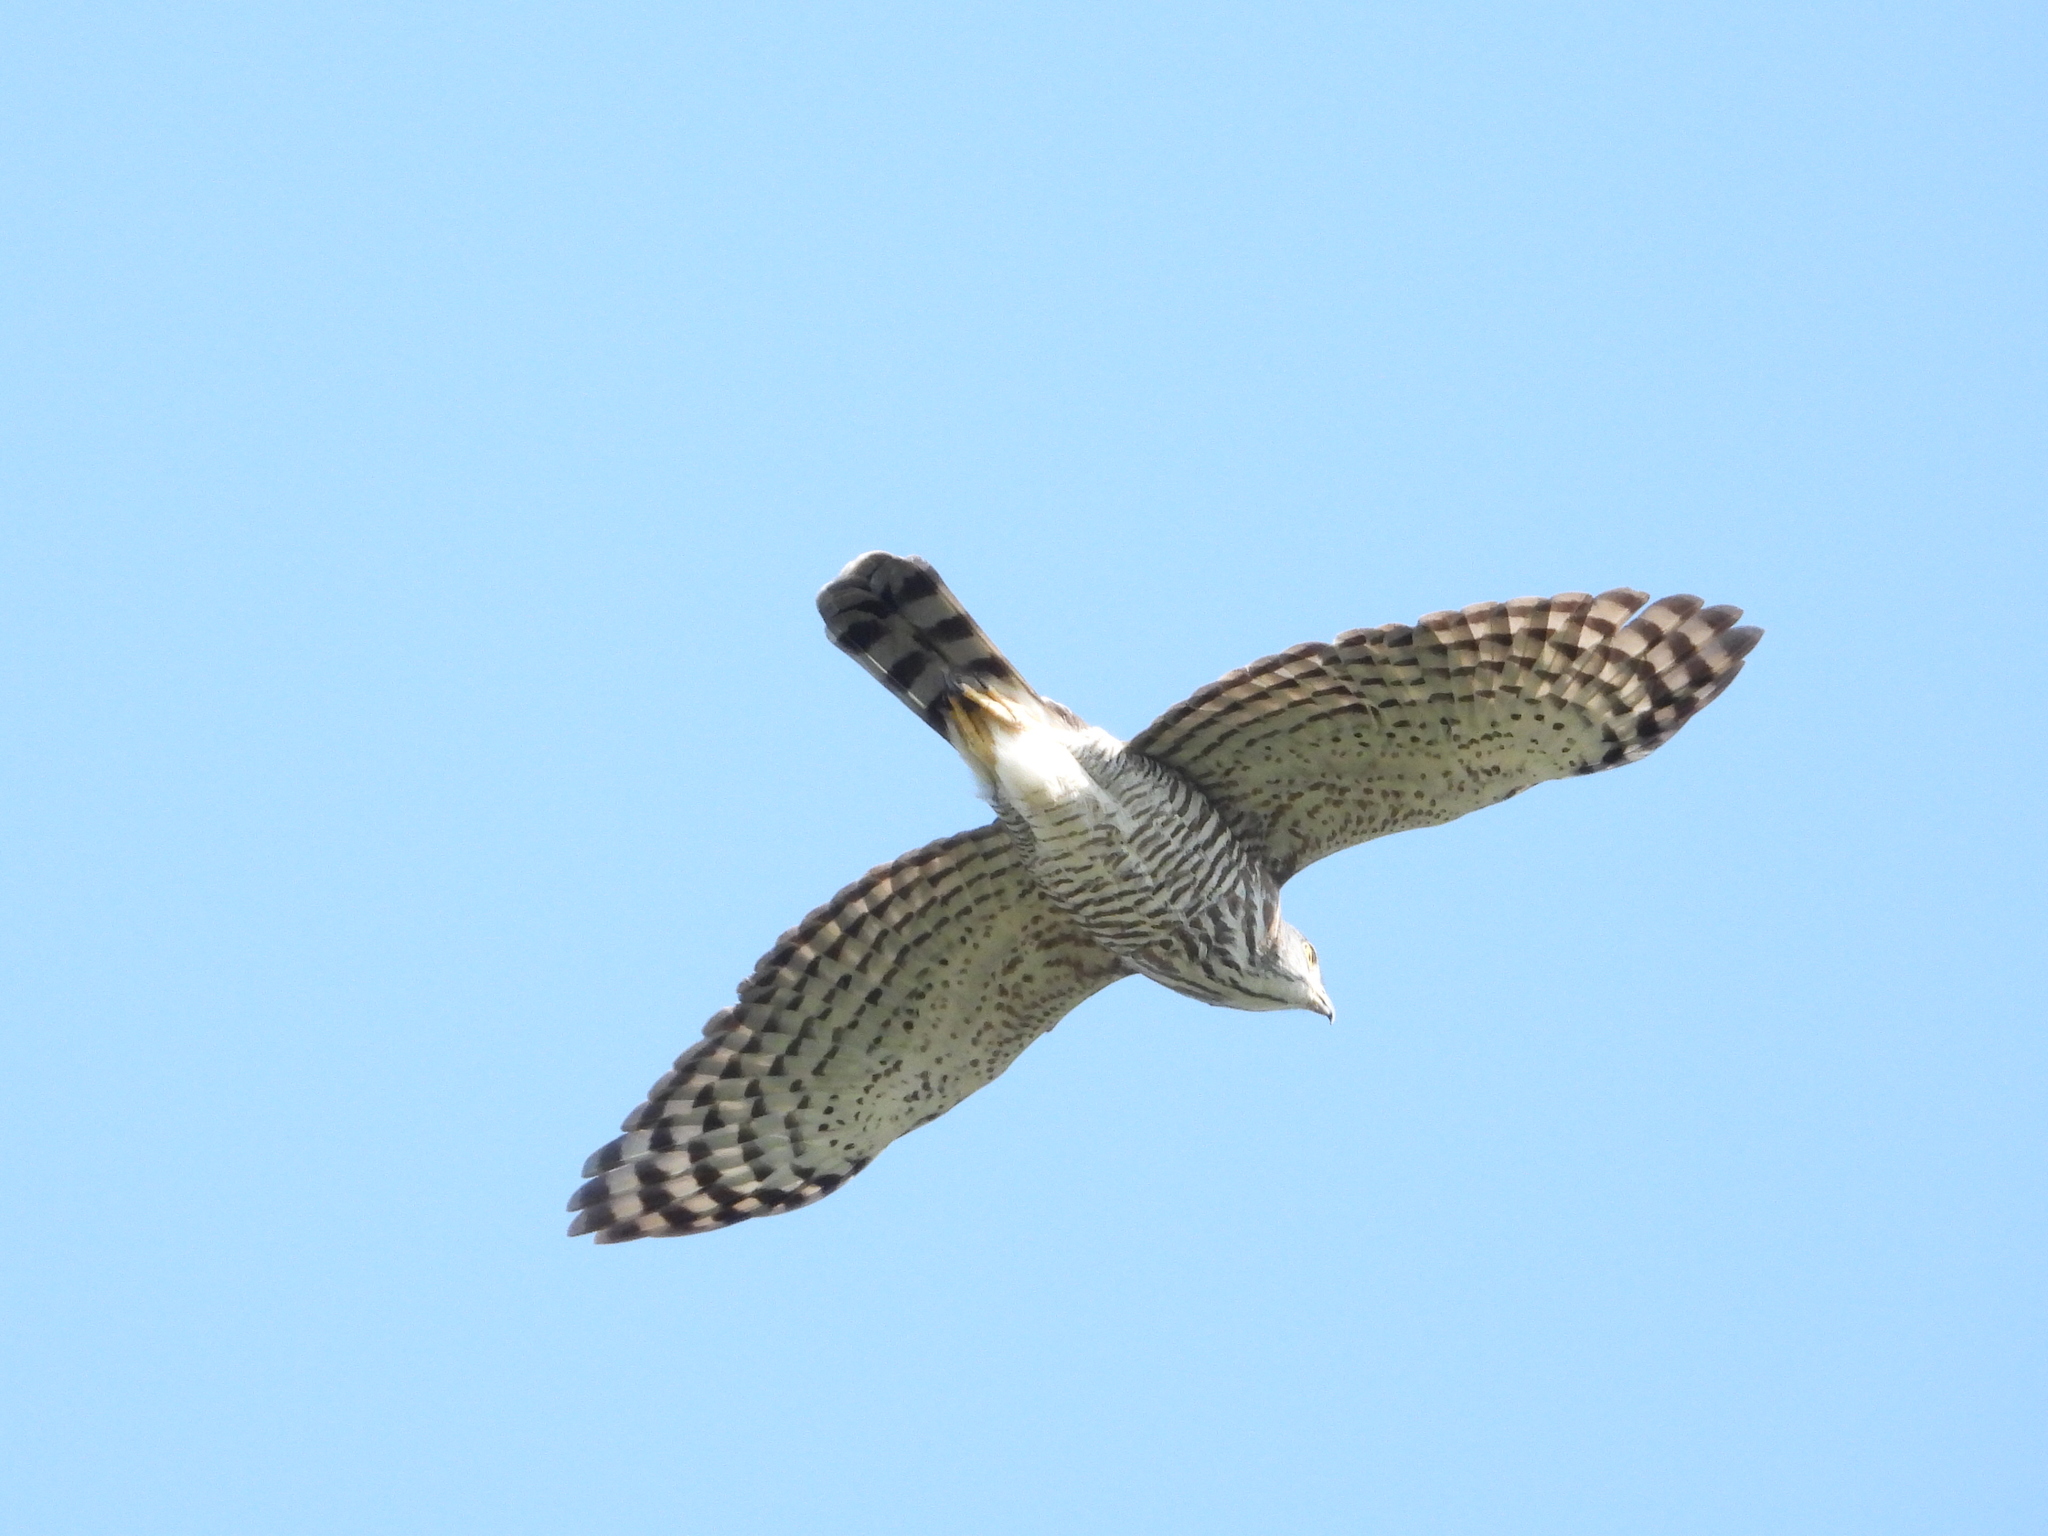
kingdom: Animalia
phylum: Chordata
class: Aves
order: Accipitriformes
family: Accipitridae
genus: Accipiter
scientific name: Accipiter trivirgatus
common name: Crested goshawk
